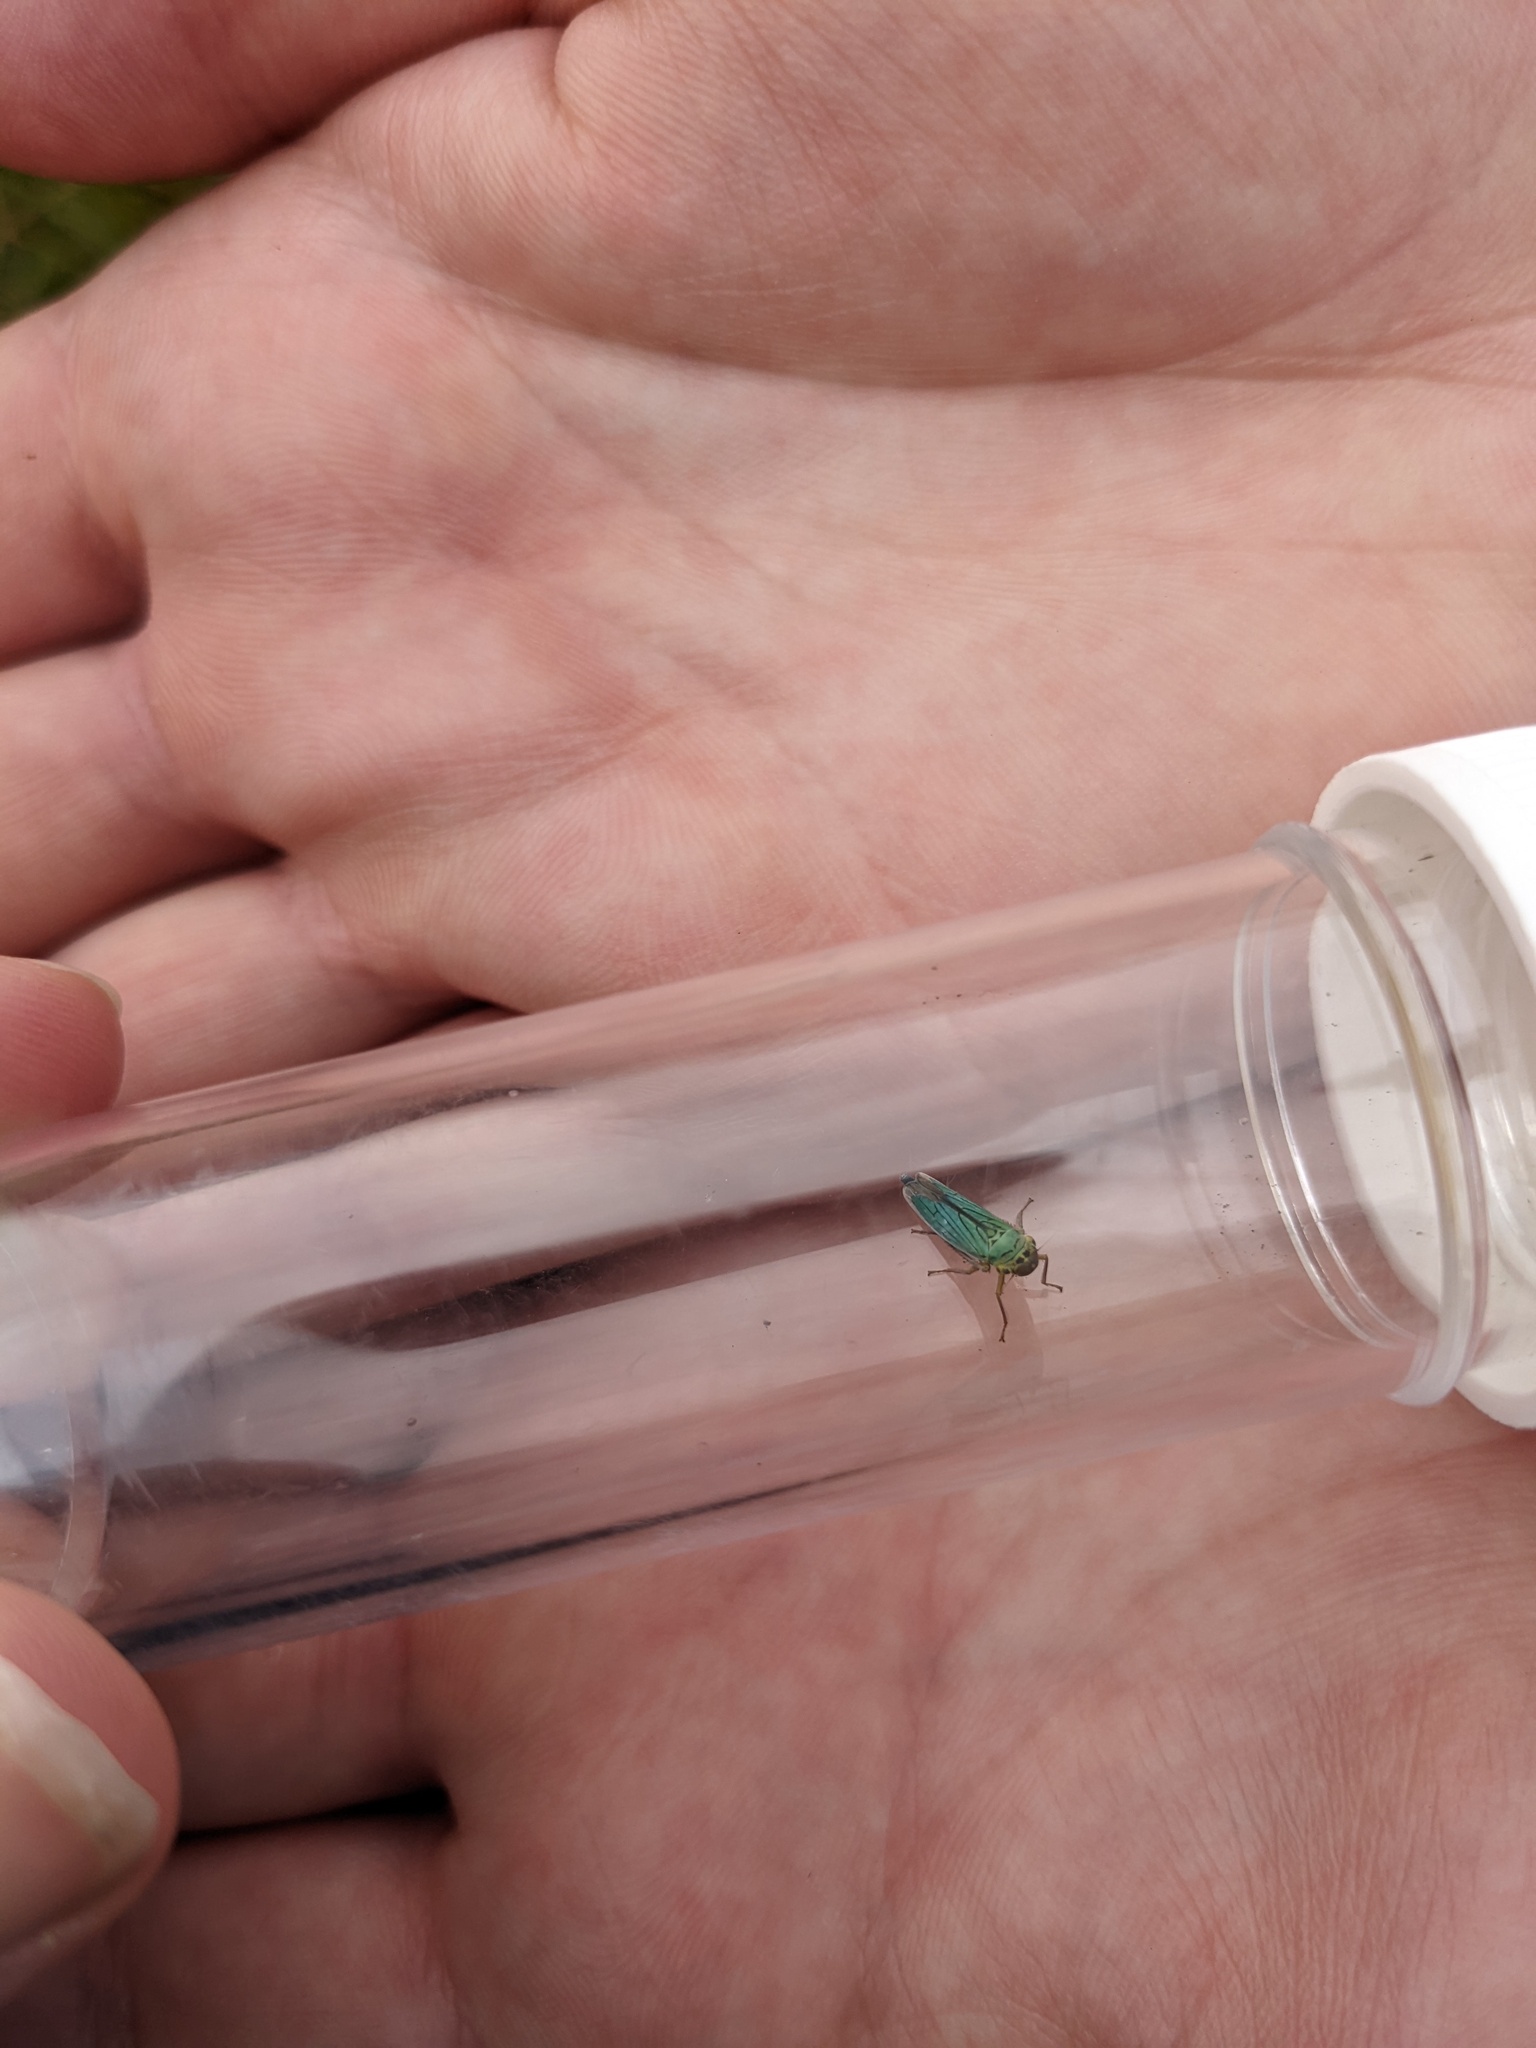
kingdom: Animalia
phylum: Arthropoda
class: Insecta
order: Hemiptera
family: Cicadellidae
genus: Cicadella
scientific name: Cicadella viridis
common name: Leafhopper
